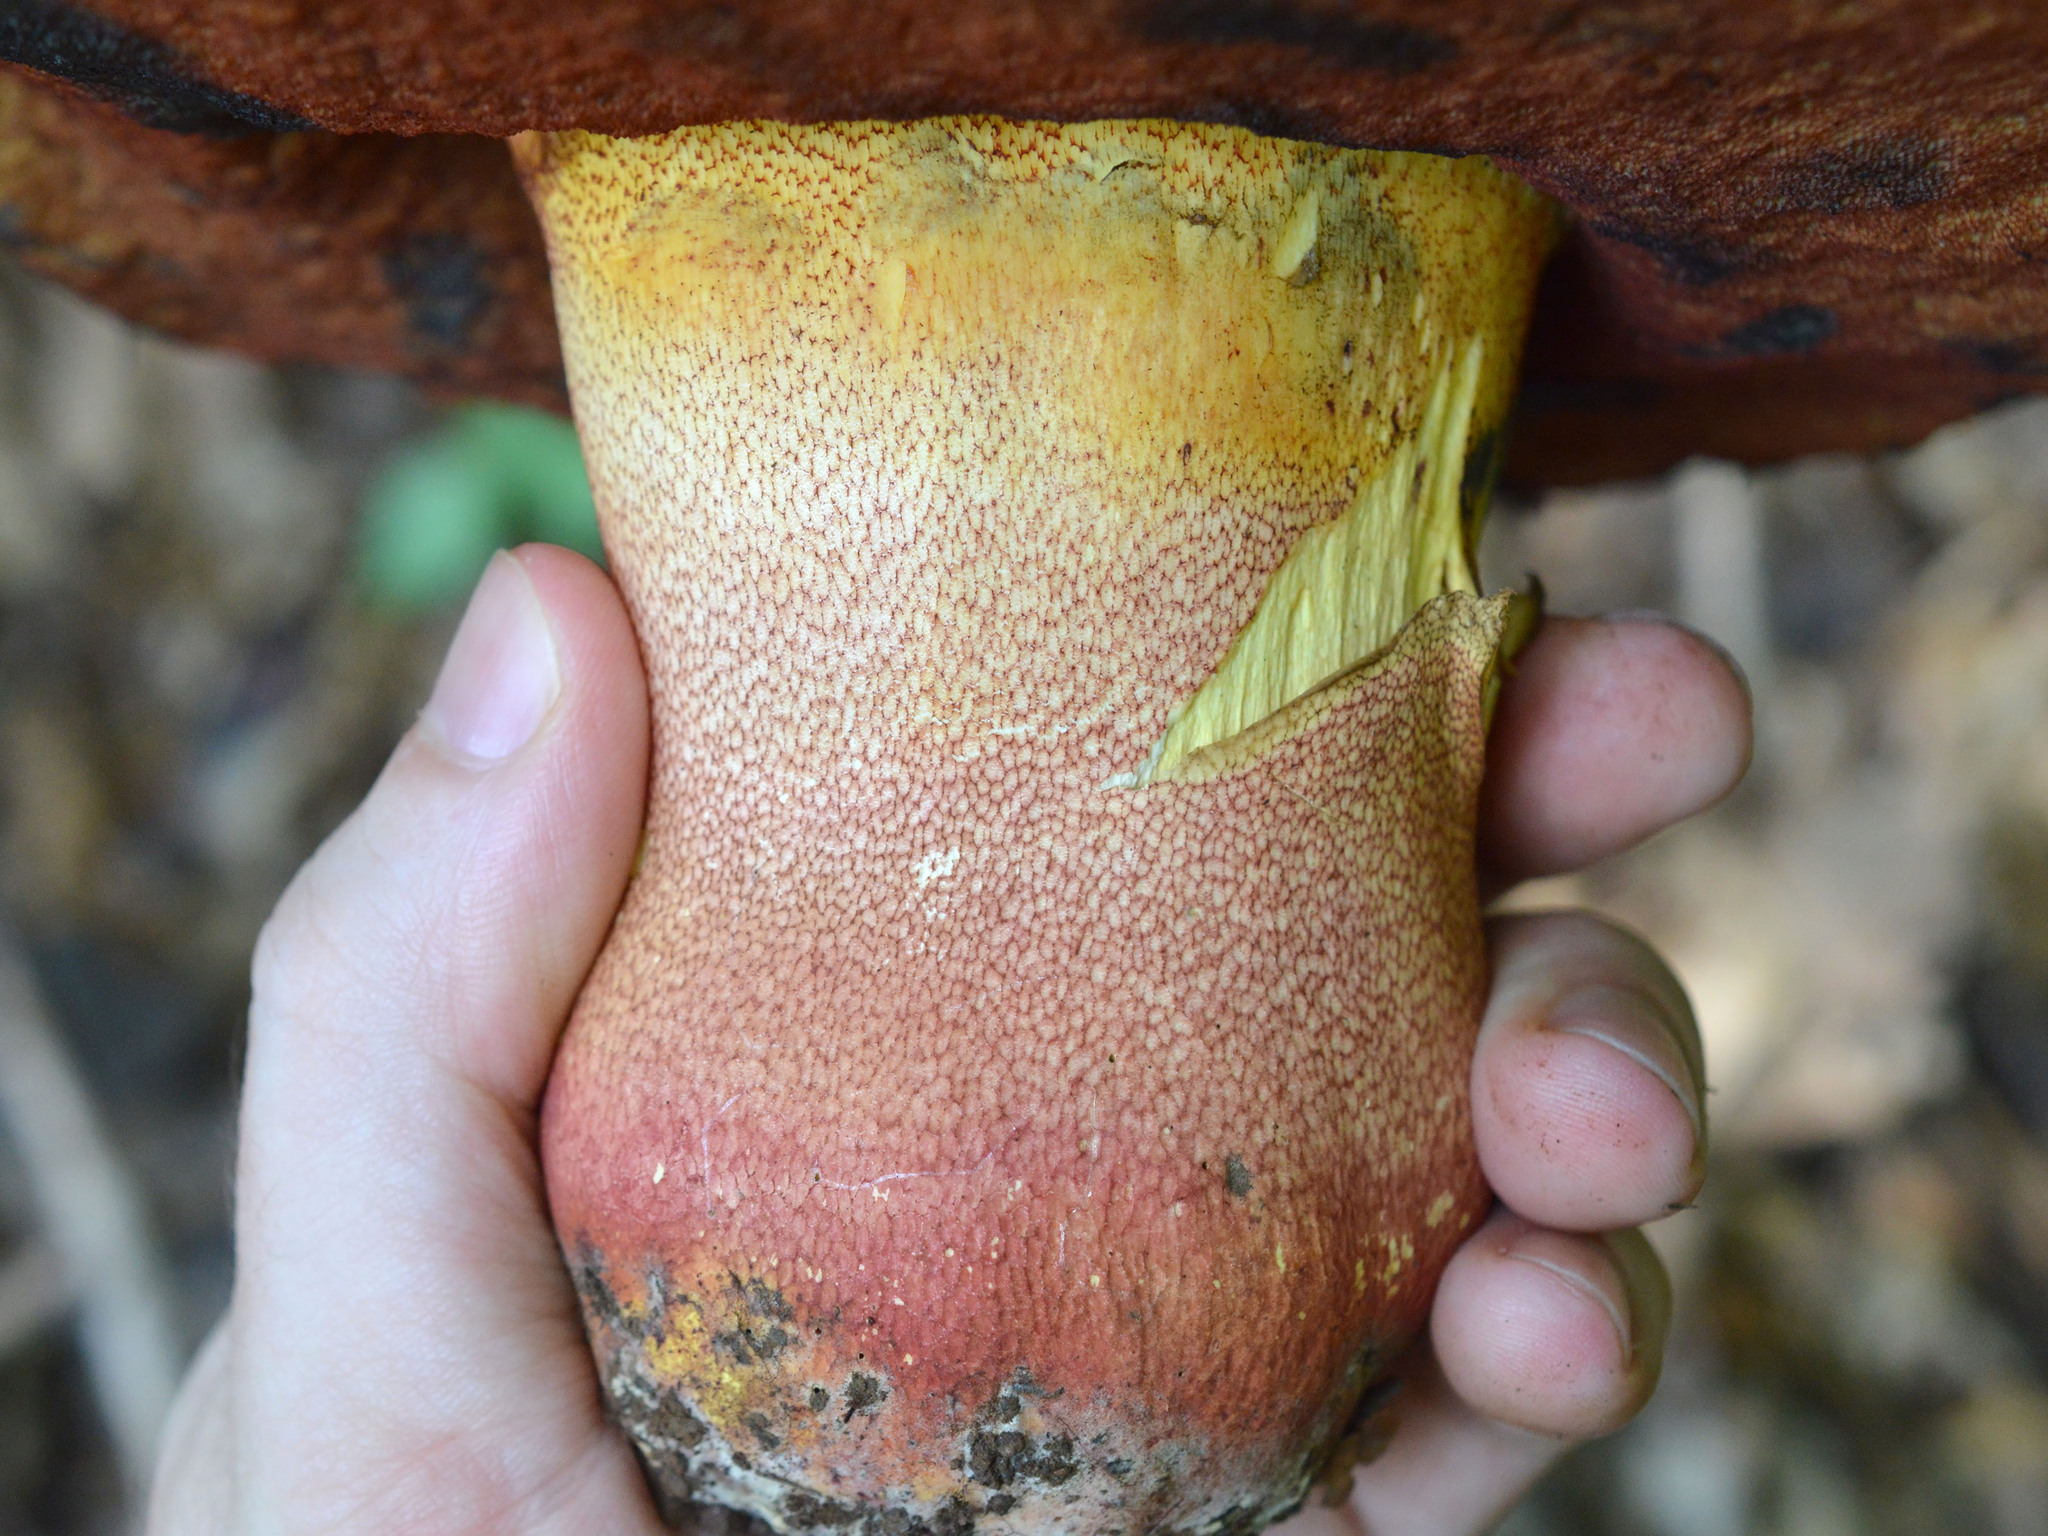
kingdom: Fungi
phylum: Basidiomycota
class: Agaricomycetes
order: Boletales
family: Boletaceae
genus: Rubroboletus
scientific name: Rubroboletus rhodoxanthus
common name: Ruddy bolete
